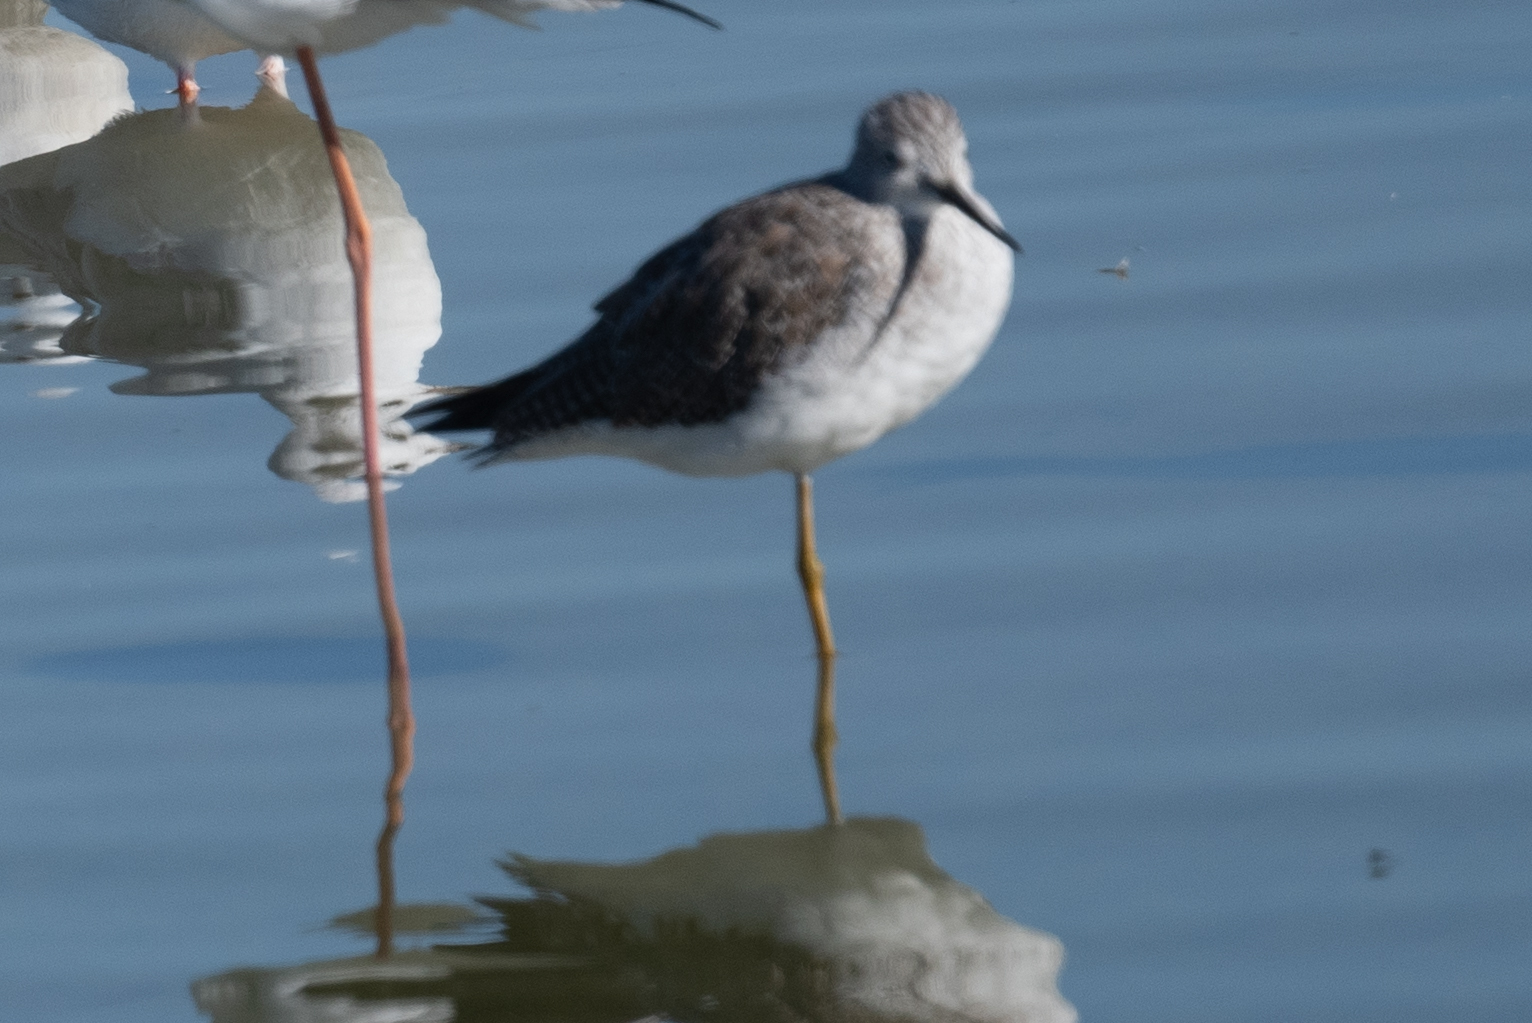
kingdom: Animalia
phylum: Chordata
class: Aves
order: Charadriiformes
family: Scolopacidae
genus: Tringa
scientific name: Tringa melanoleuca
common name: Greater yellowlegs
